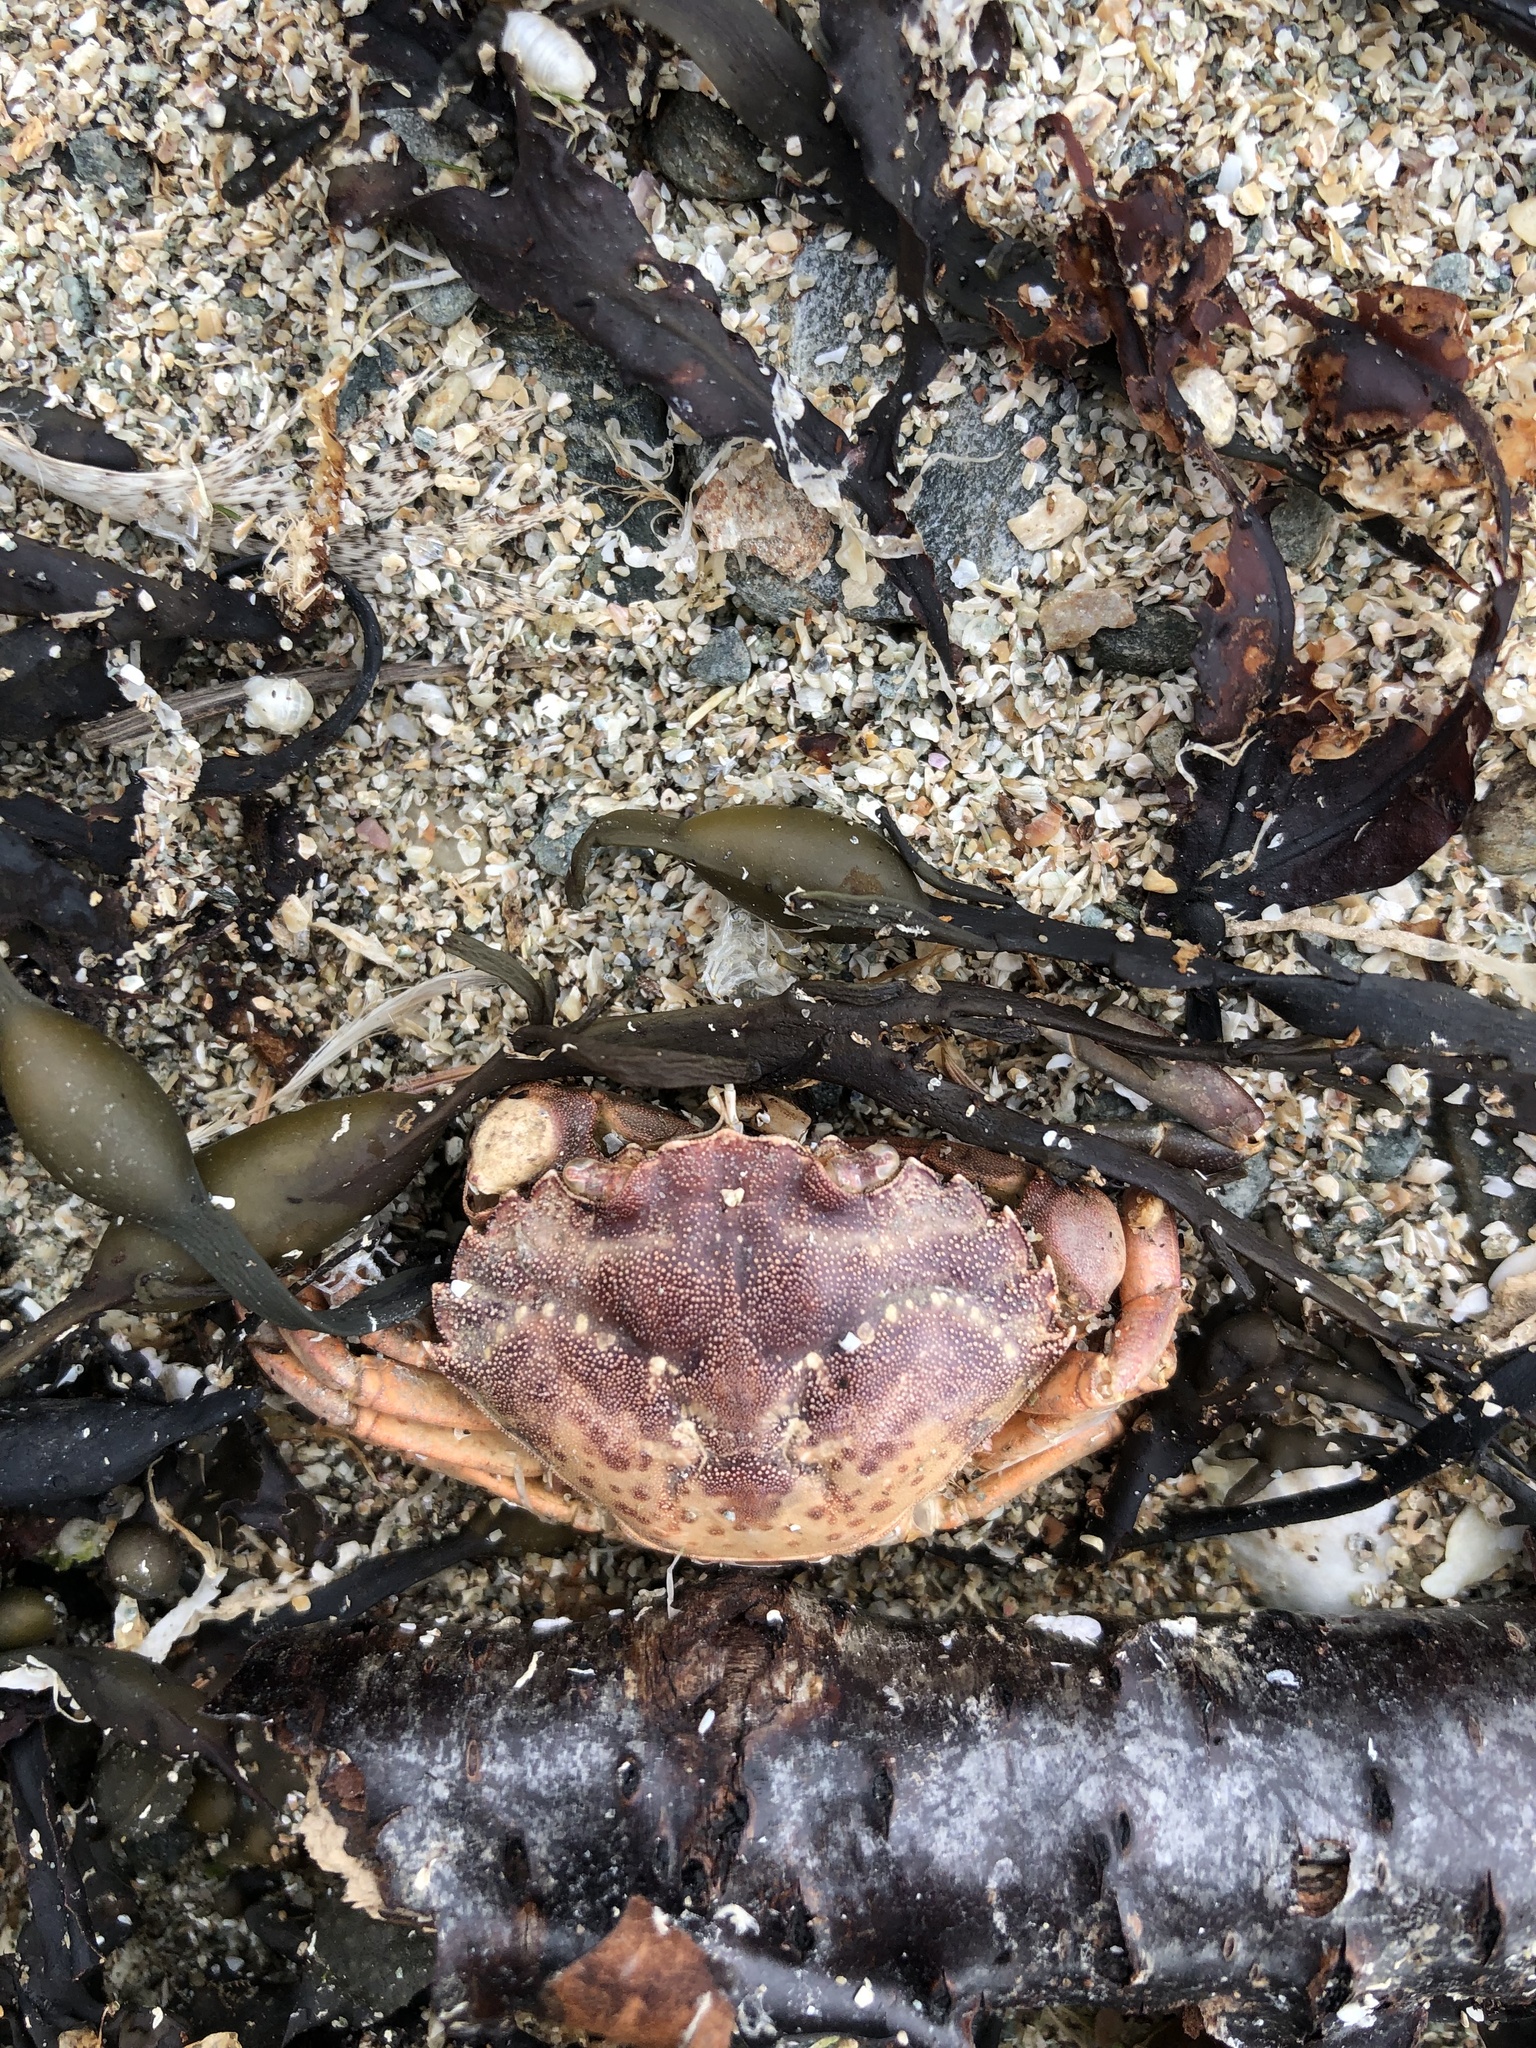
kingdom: Animalia
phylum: Arthropoda
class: Malacostraca
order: Decapoda
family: Carcinidae
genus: Carcinus
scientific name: Carcinus maenas
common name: European green crab
